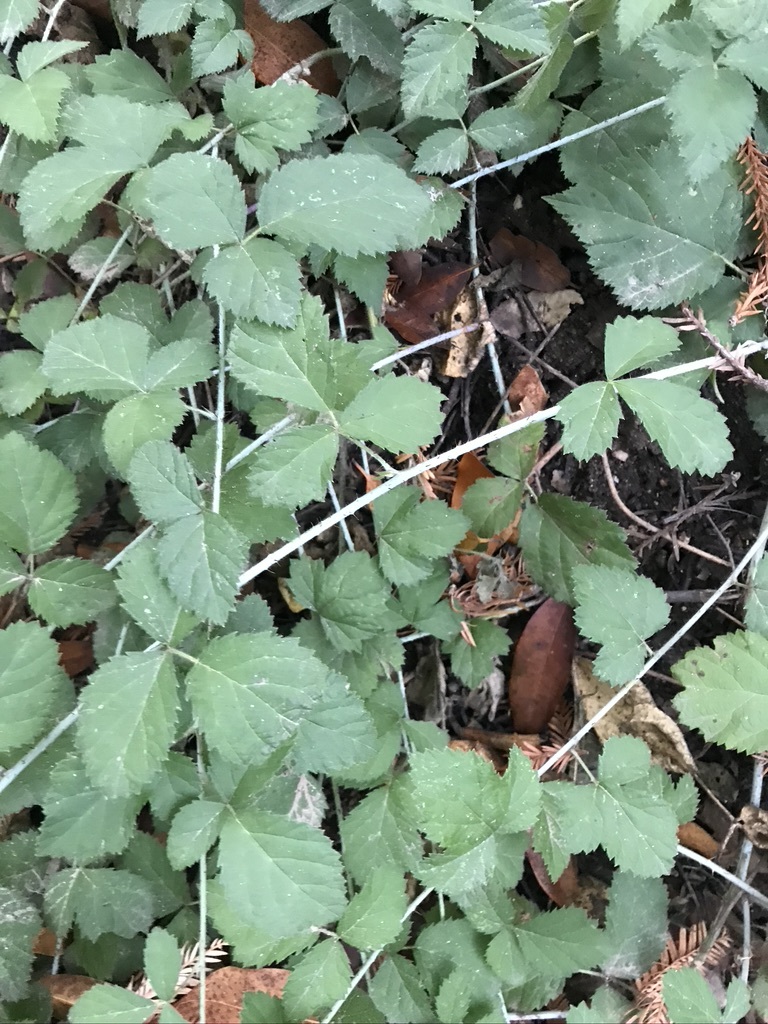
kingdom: Plantae
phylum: Tracheophyta
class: Magnoliopsida
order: Rosales
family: Rosaceae
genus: Rubus
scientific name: Rubus ursinus
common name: Pacific blackberry
